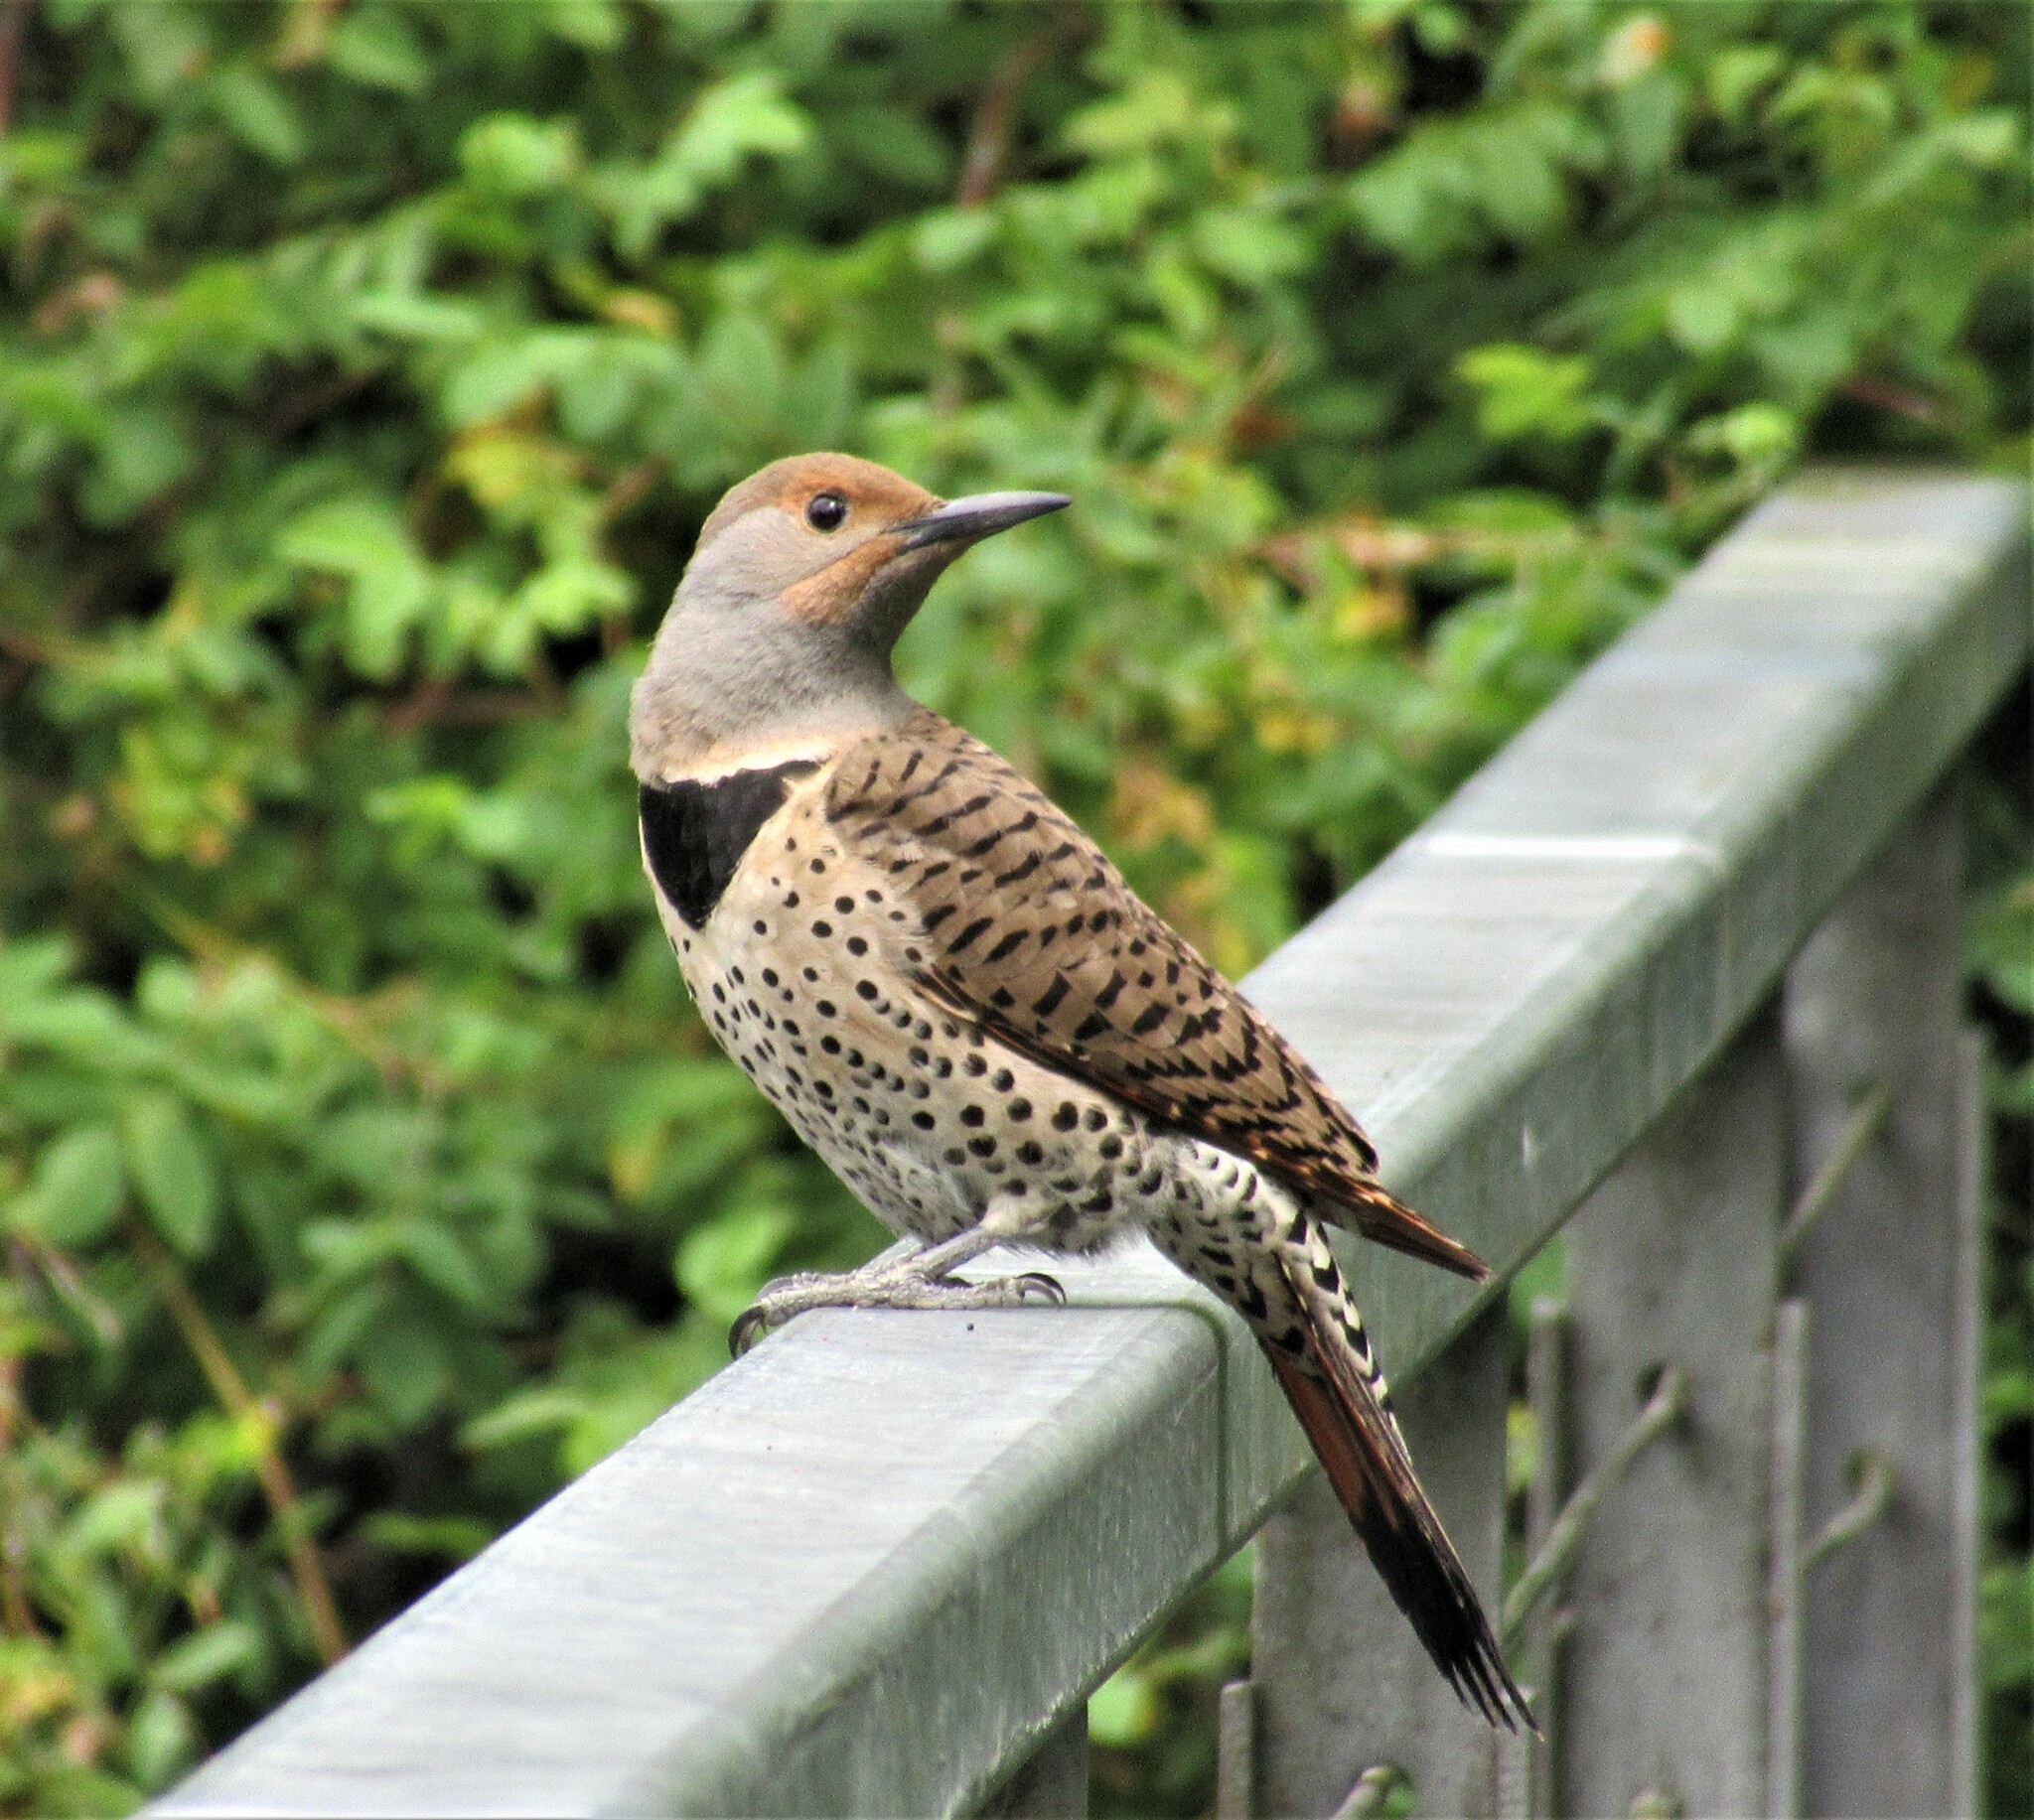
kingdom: Animalia
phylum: Chordata
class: Aves
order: Piciformes
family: Picidae
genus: Colaptes
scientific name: Colaptes auratus
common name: Northern flicker
